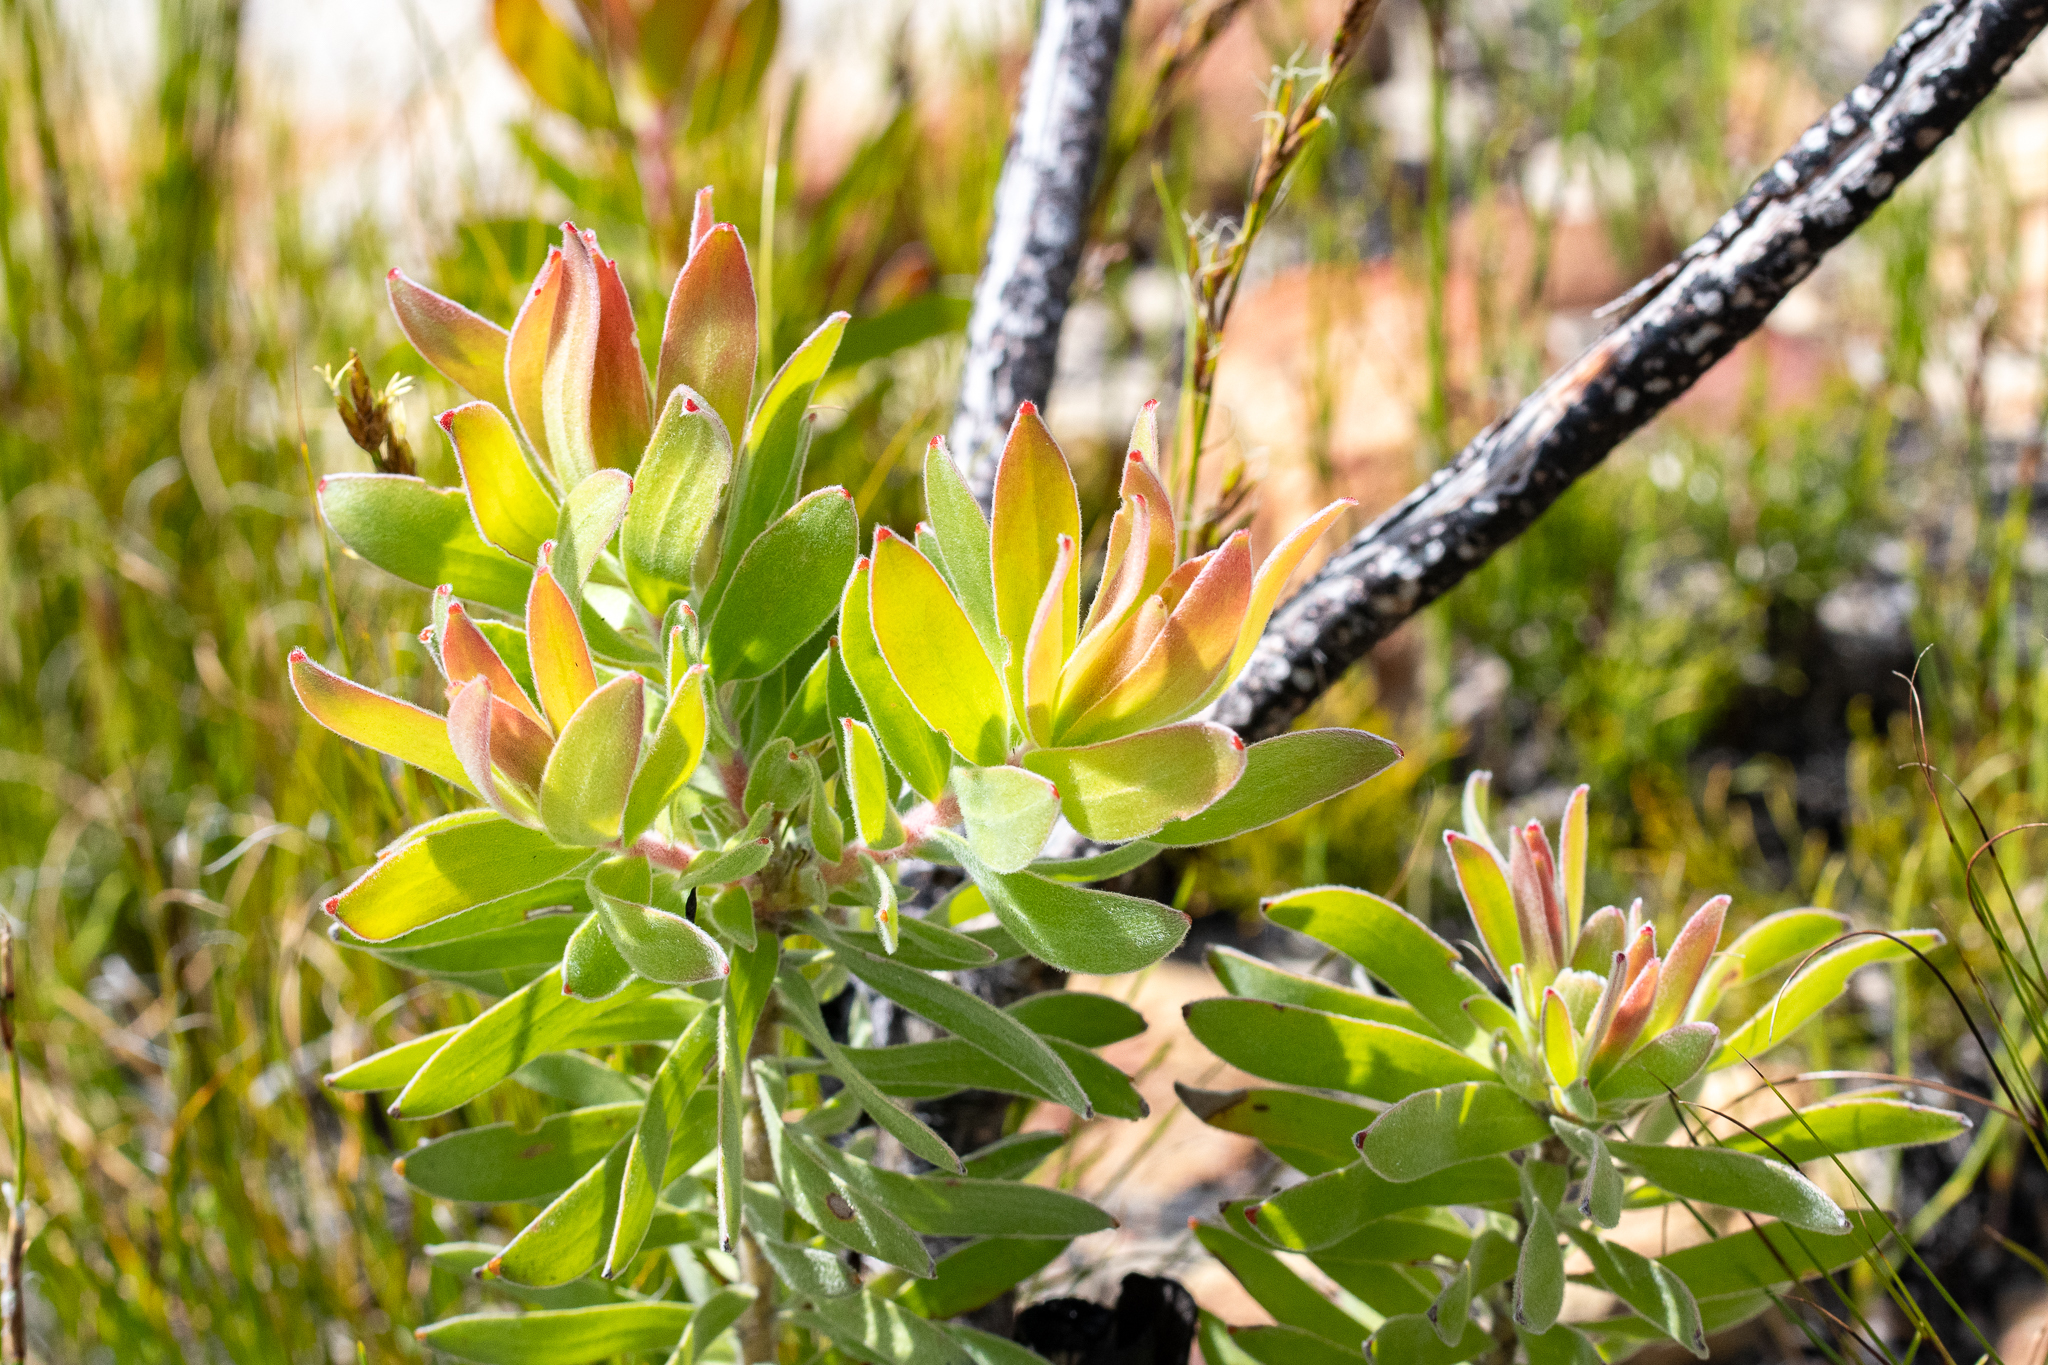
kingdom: Plantae
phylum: Tracheophyta
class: Magnoliopsida
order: Proteales
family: Proteaceae
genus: Leucospermum
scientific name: Leucospermum oleifolium
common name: Matches
